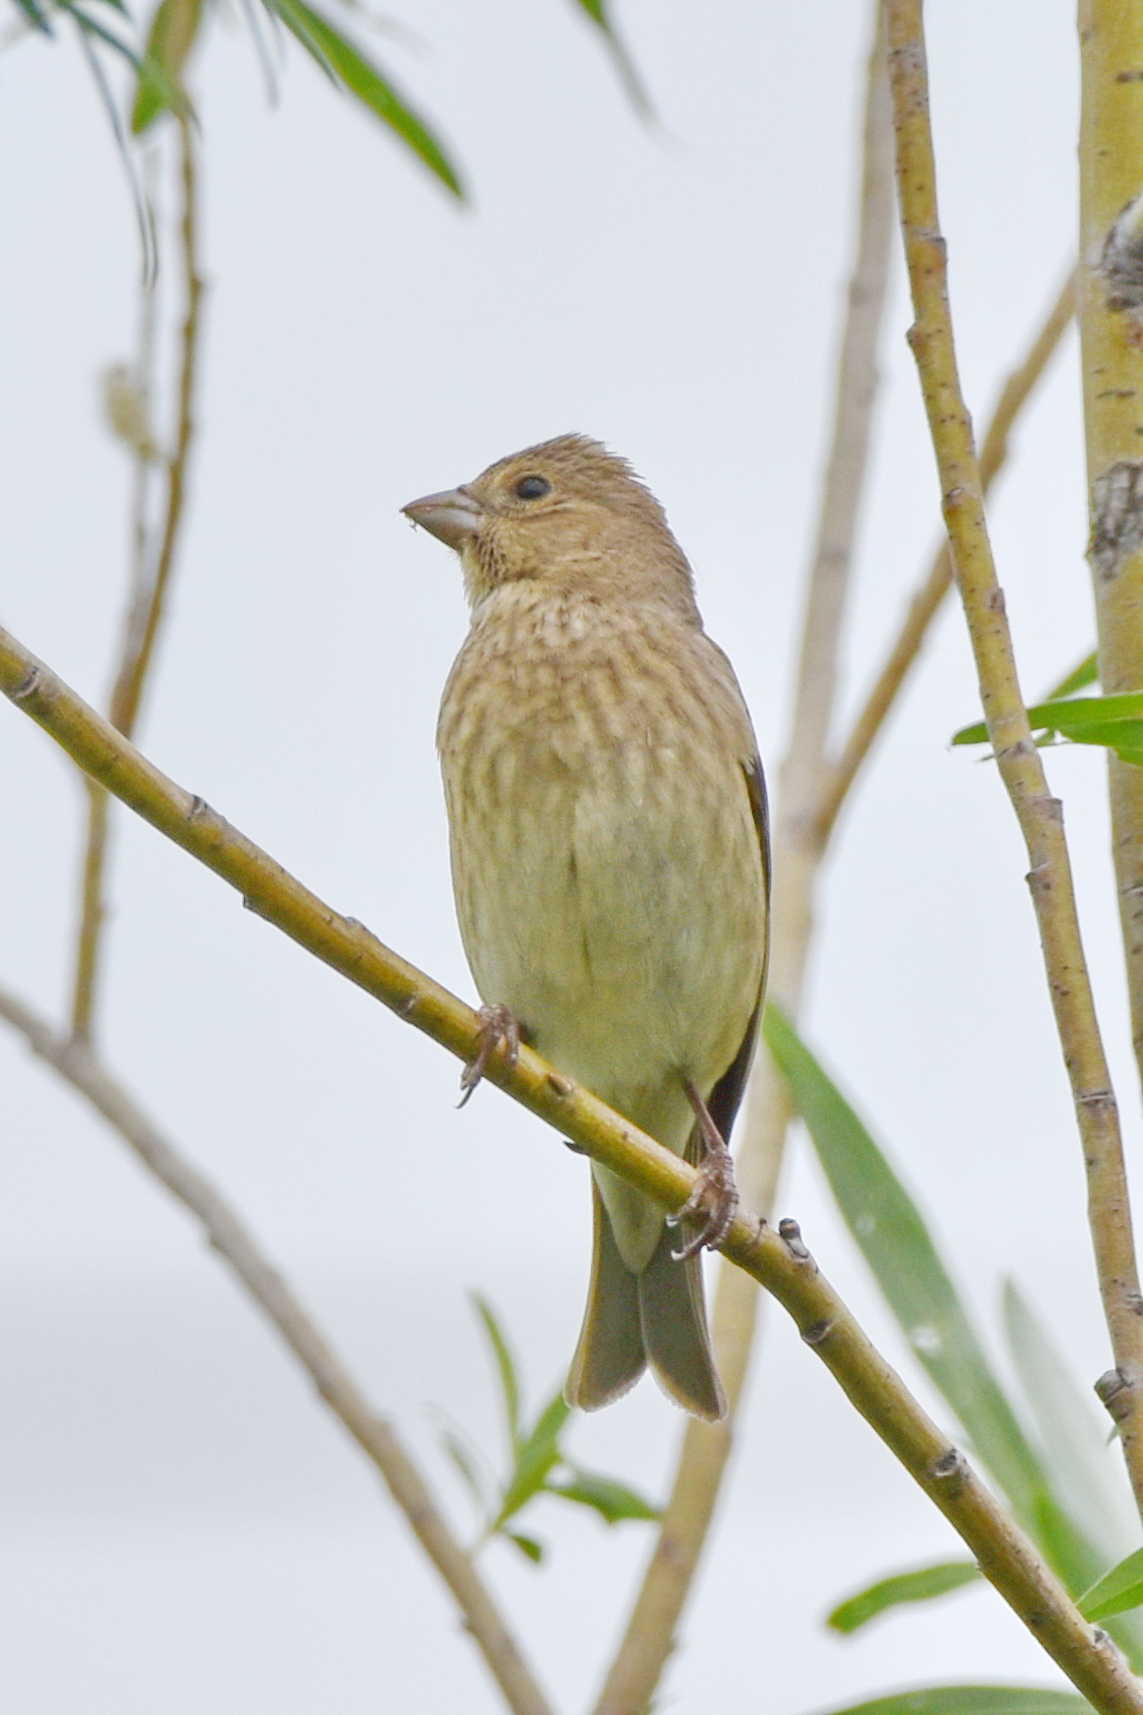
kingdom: Animalia
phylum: Chordata
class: Aves
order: Passeriformes
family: Fringillidae
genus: Carpodacus
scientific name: Carpodacus erythrinus
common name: Common rosefinch
